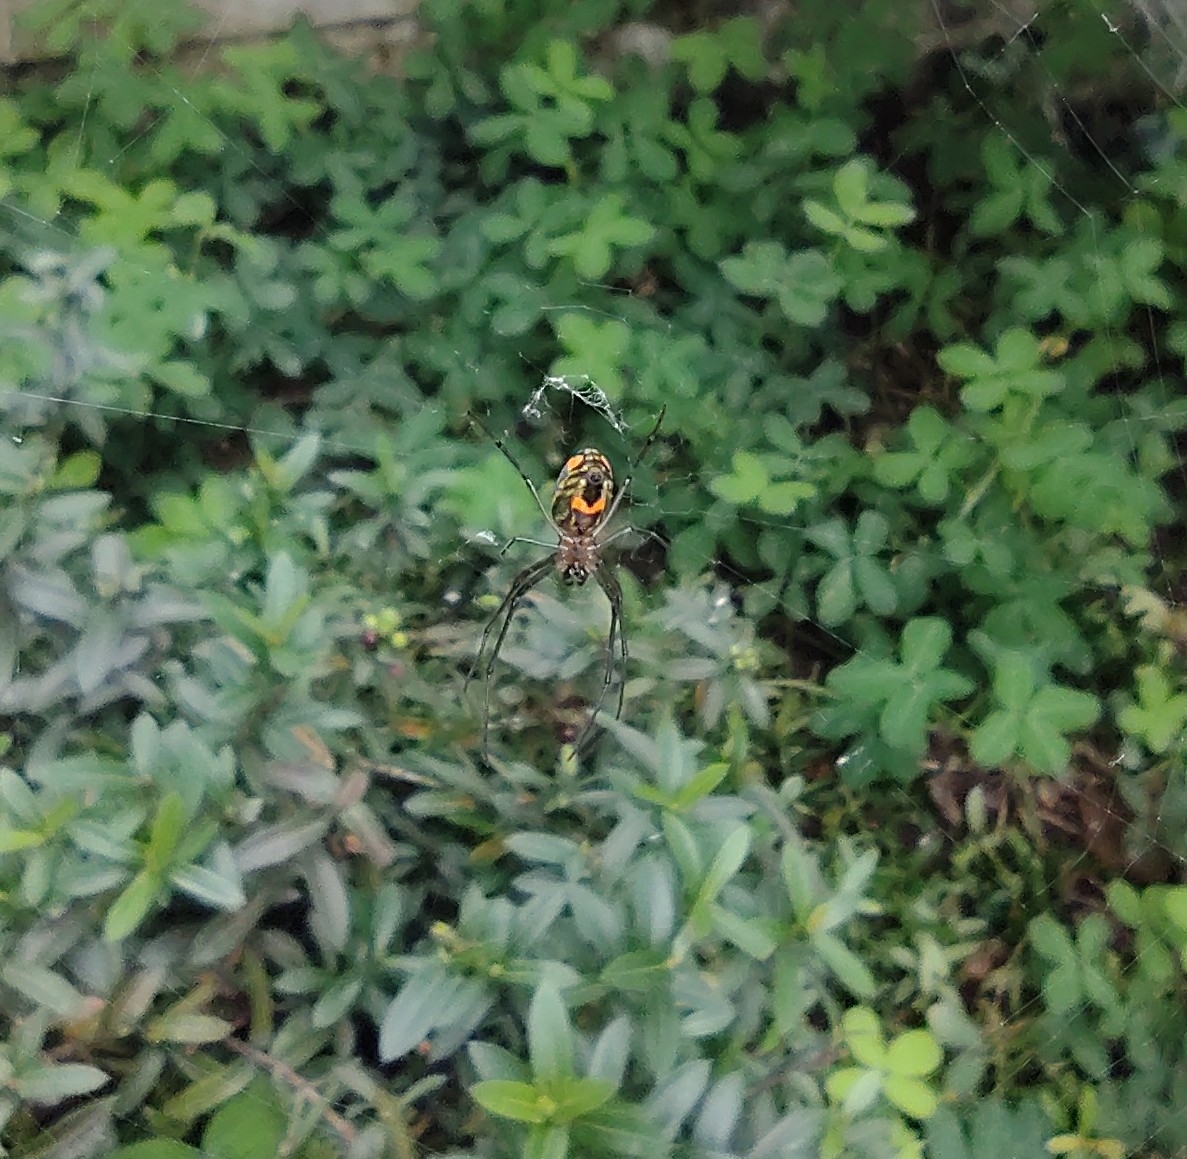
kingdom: Animalia
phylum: Arthropoda
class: Arachnida
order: Araneae
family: Tetragnathidae
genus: Leucauge
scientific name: Leucauge argyrobapta
